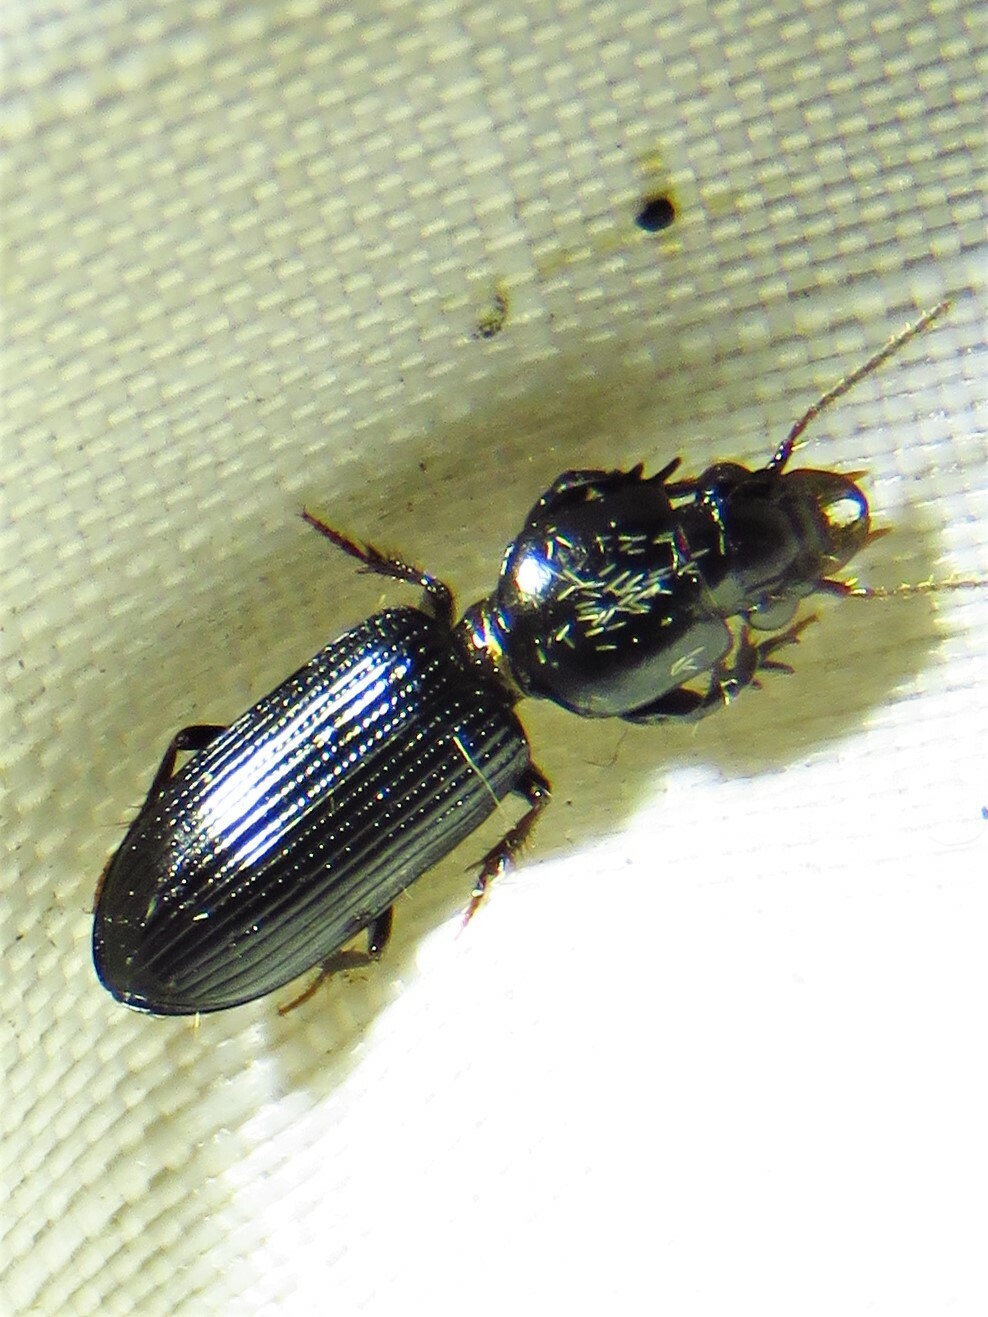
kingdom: Animalia
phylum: Arthropoda
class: Insecta
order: Coleoptera
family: Carabidae
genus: Semiclivina
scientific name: Semiclivina dentipes
